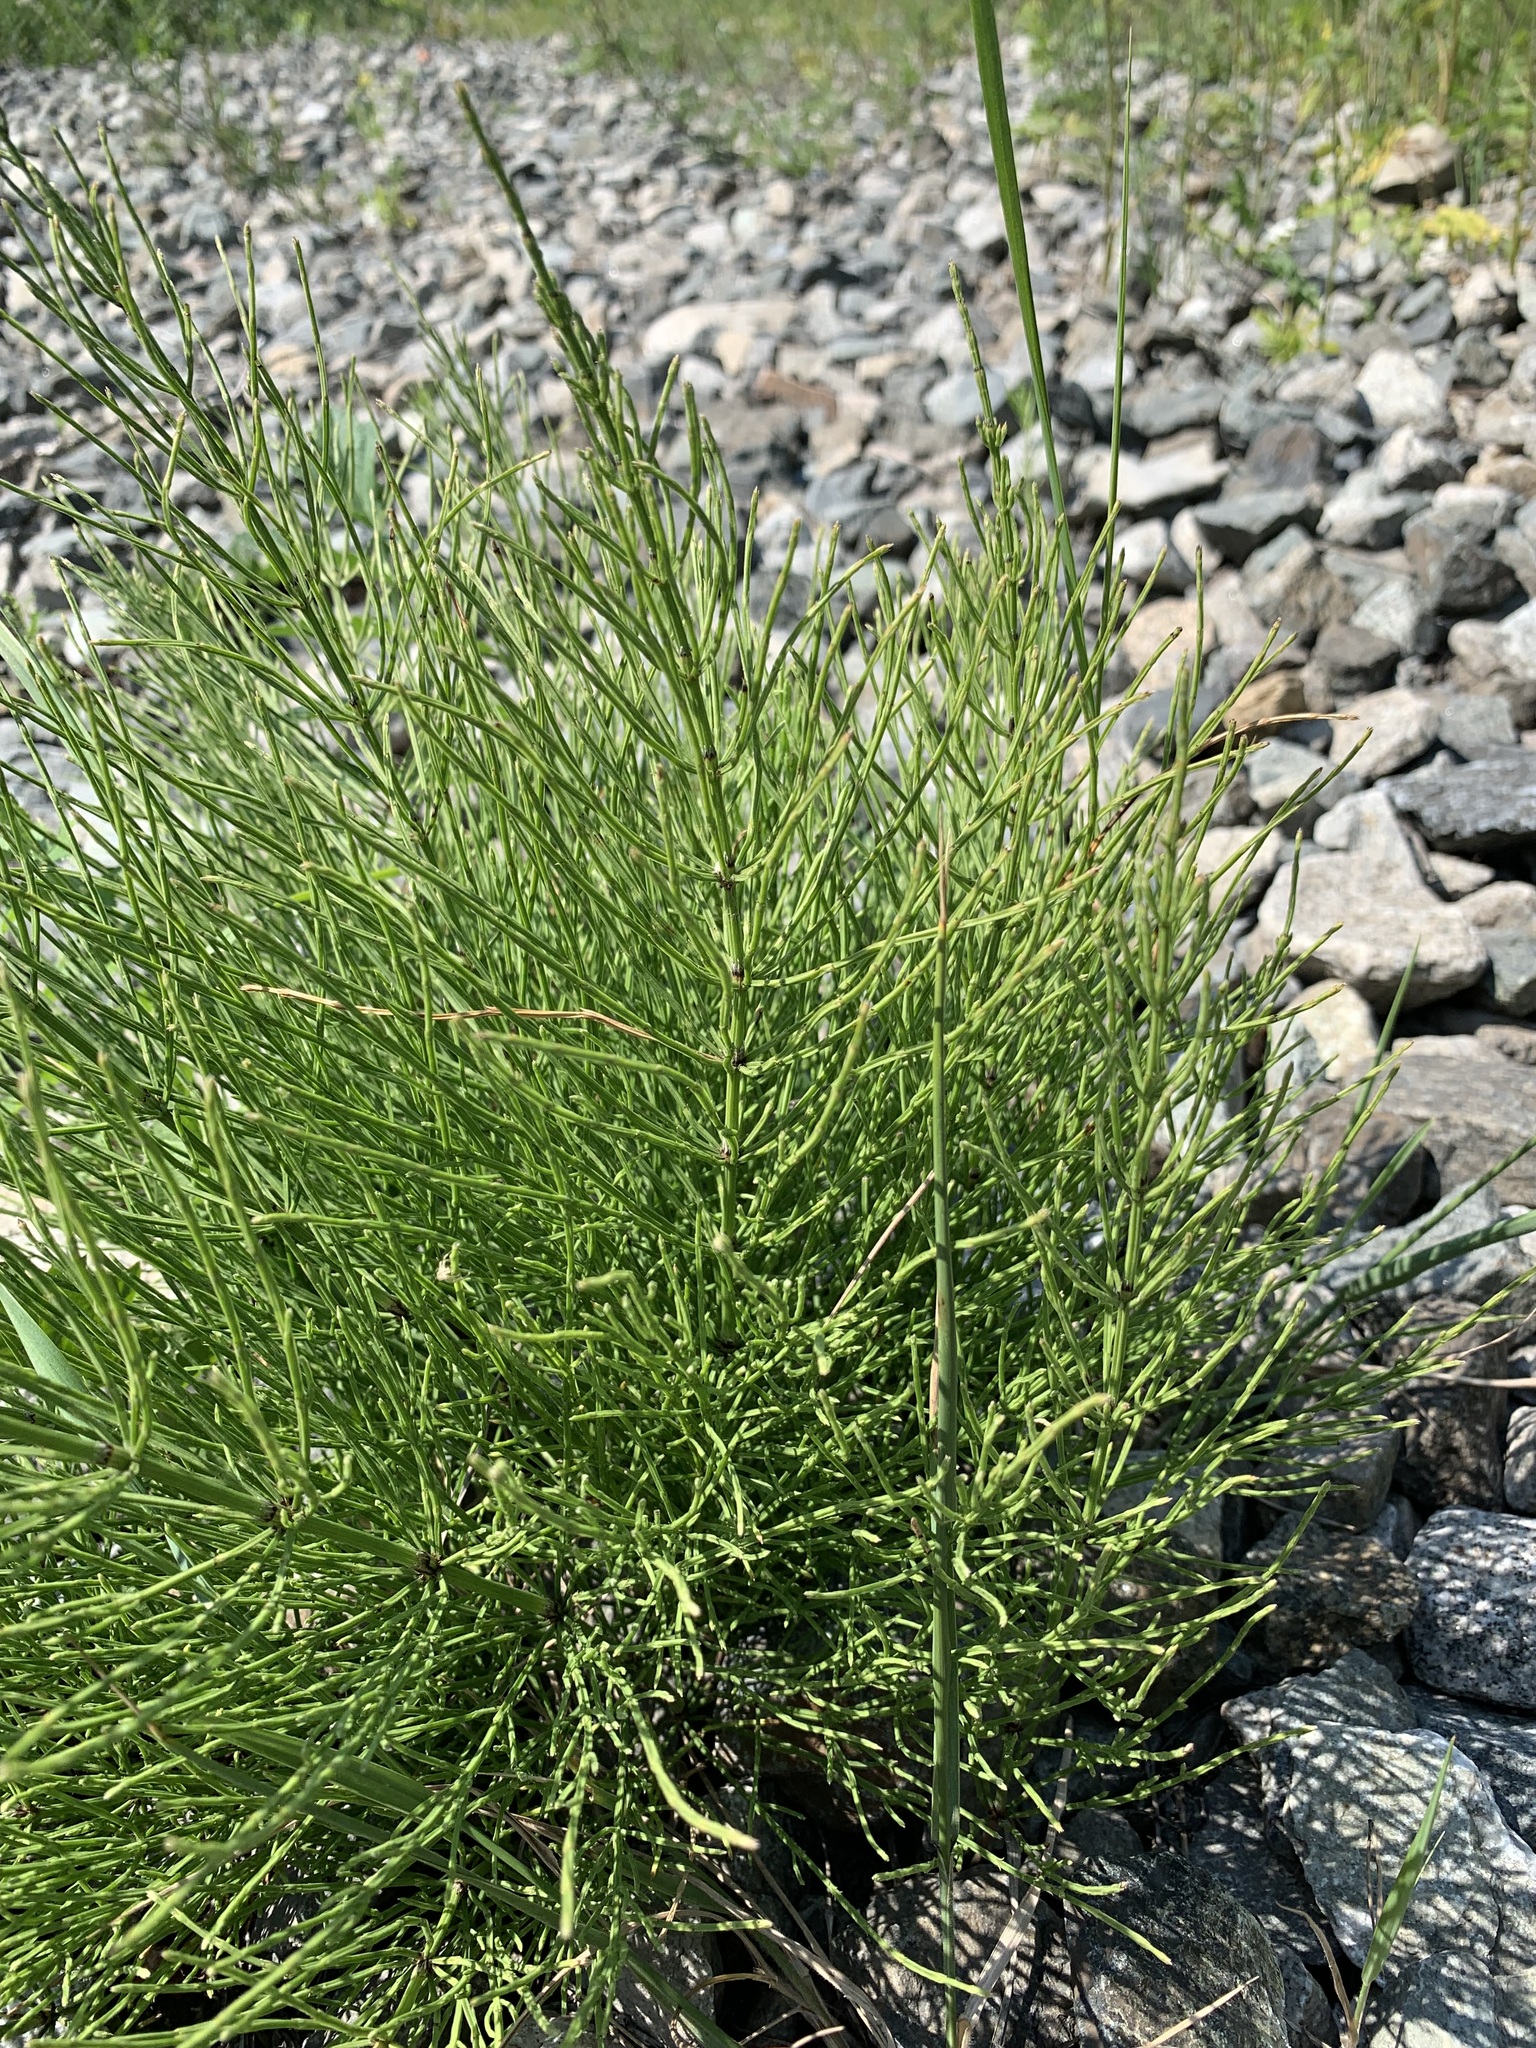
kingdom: Plantae
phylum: Tracheophyta
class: Polypodiopsida
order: Equisetales
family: Equisetaceae
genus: Equisetum
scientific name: Equisetum arvense
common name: Field horsetail
